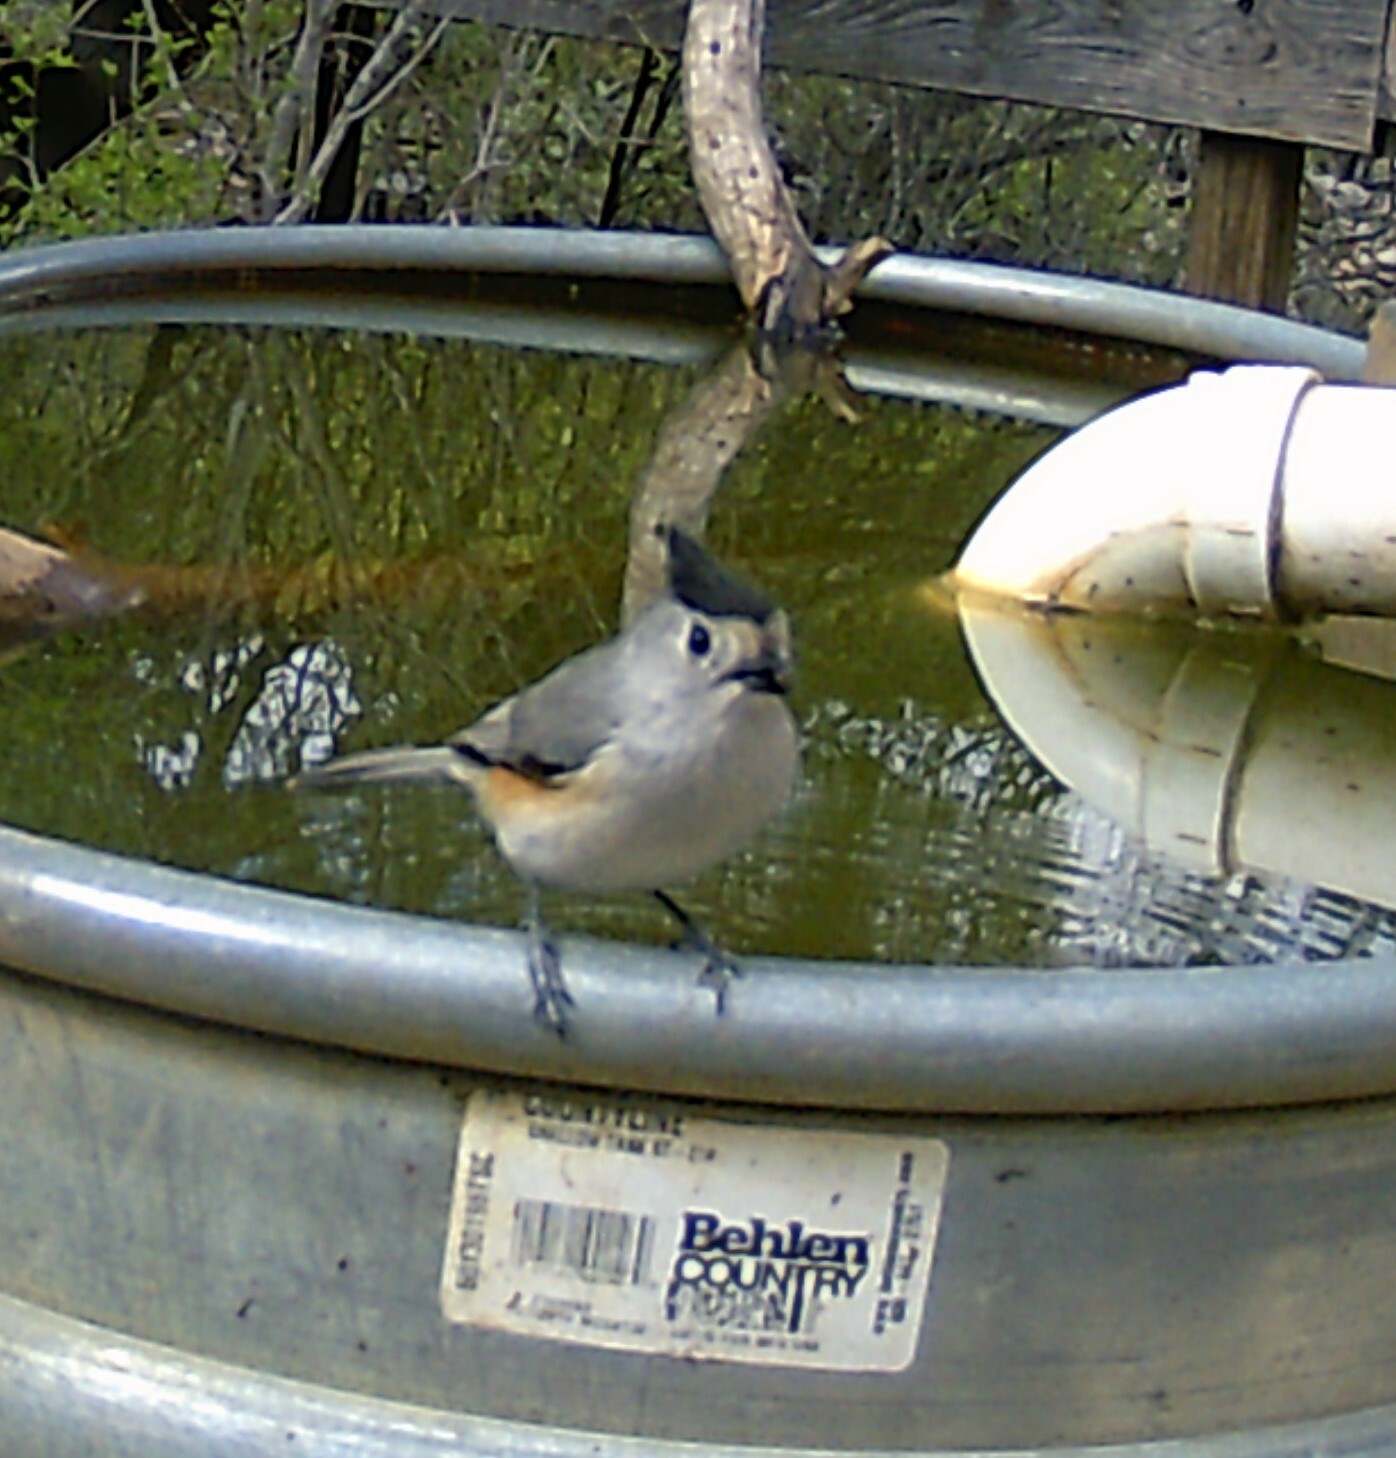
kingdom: Animalia
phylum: Chordata
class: Aves
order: Passeriformes
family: Paridae
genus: Baeolophus
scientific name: Baeolophus atricristatus
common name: Black-crested titmouse
